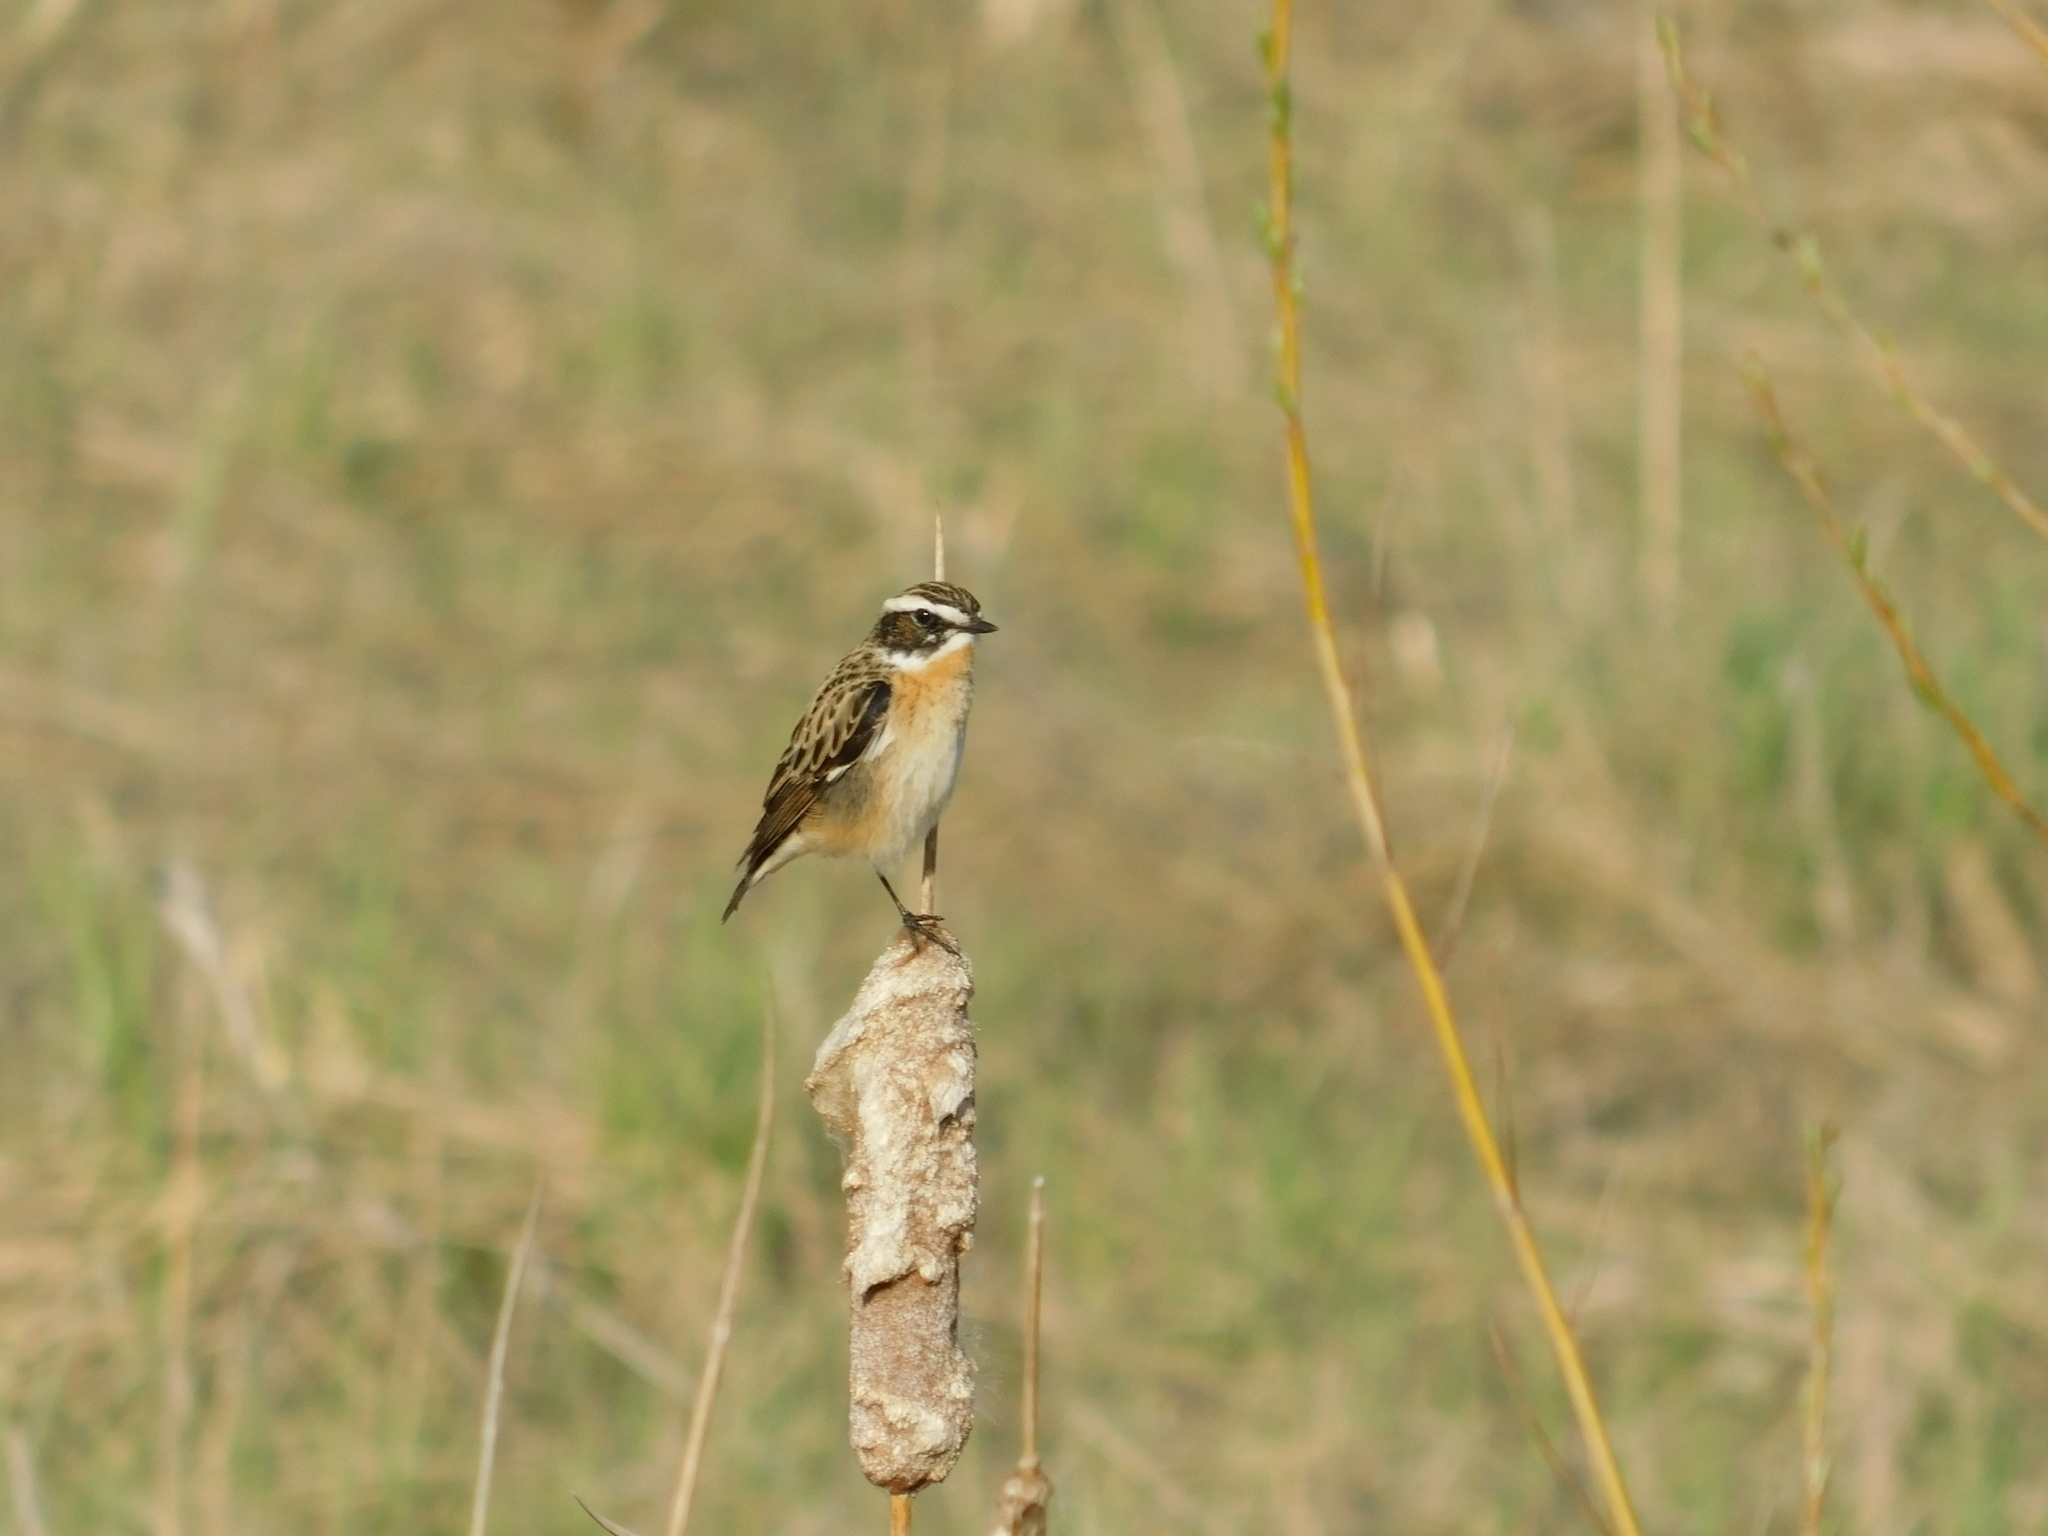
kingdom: Animalia
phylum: Chordata
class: Aves
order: Passeriformes
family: Muscicapidae
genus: Saxicola
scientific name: Saxicola rubetra
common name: Whinchat
